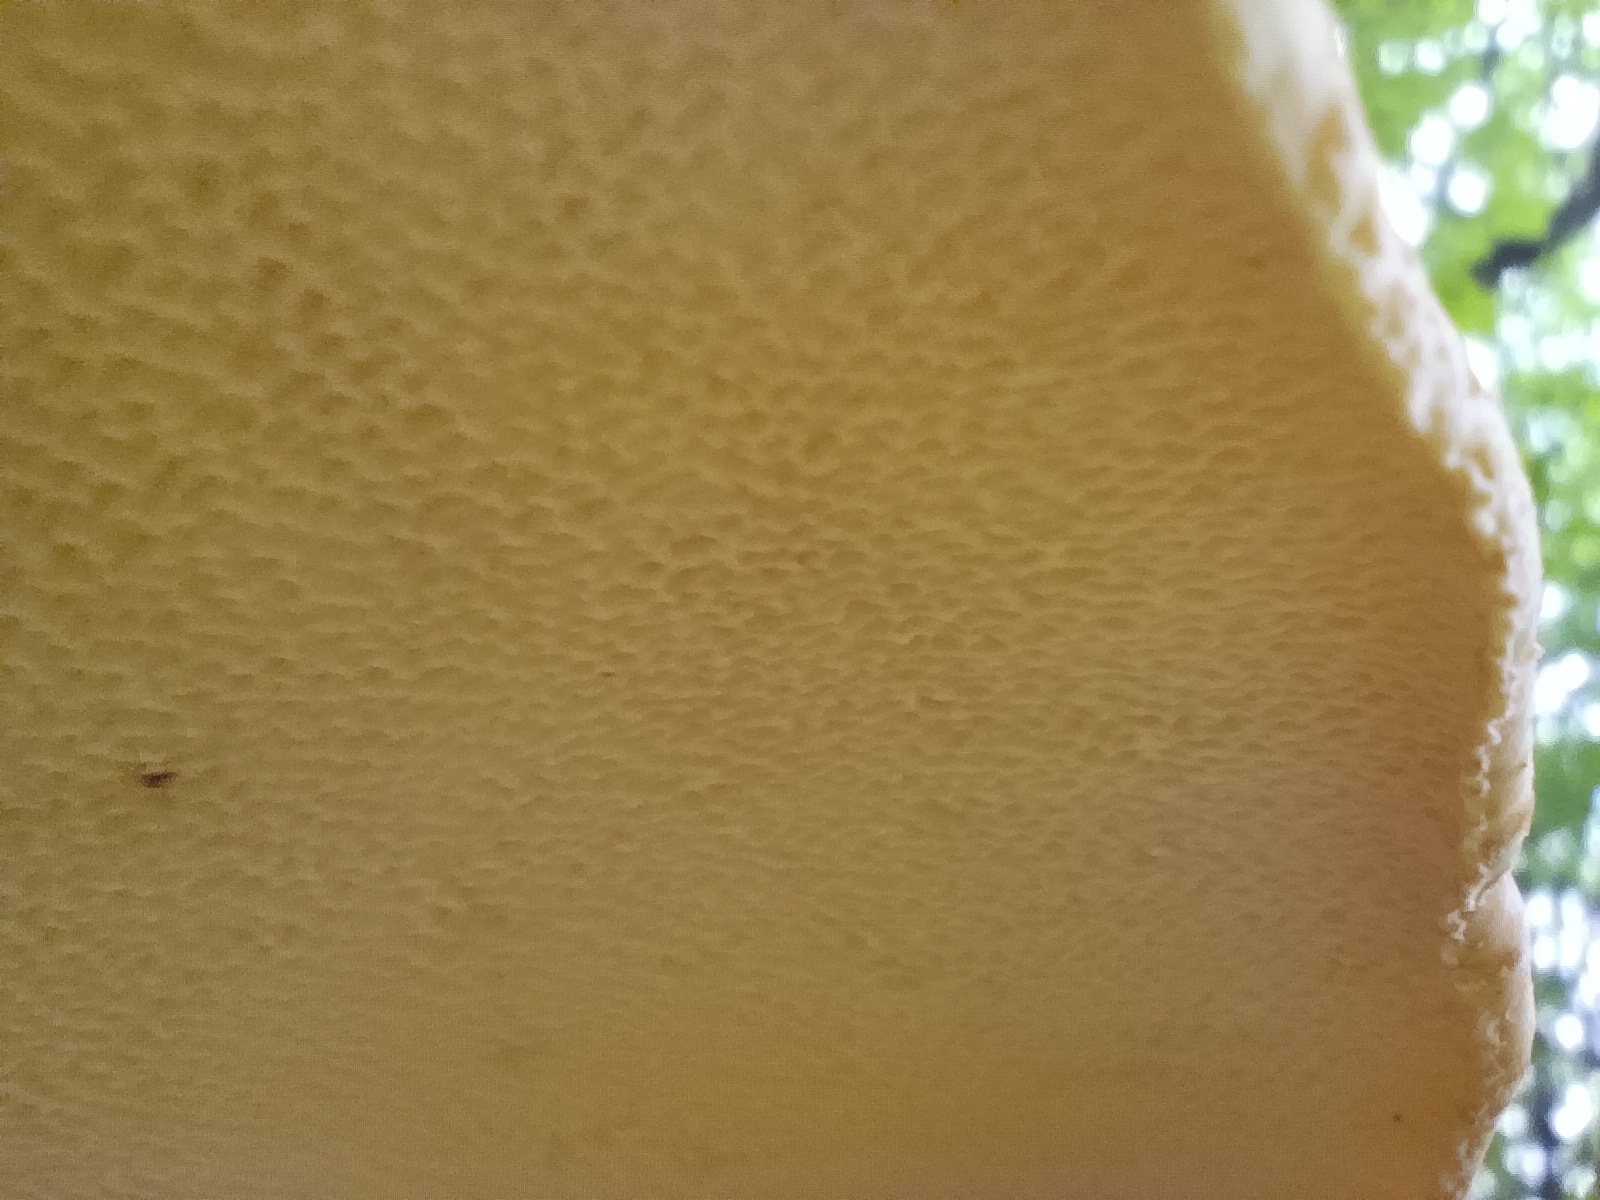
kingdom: Fungi
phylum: Basidiomycota
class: Agaricomycetes
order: Polyporales
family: Polyporaceae
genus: Cerioporus
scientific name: Cerioporus squamosus
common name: Dryad's saddle
